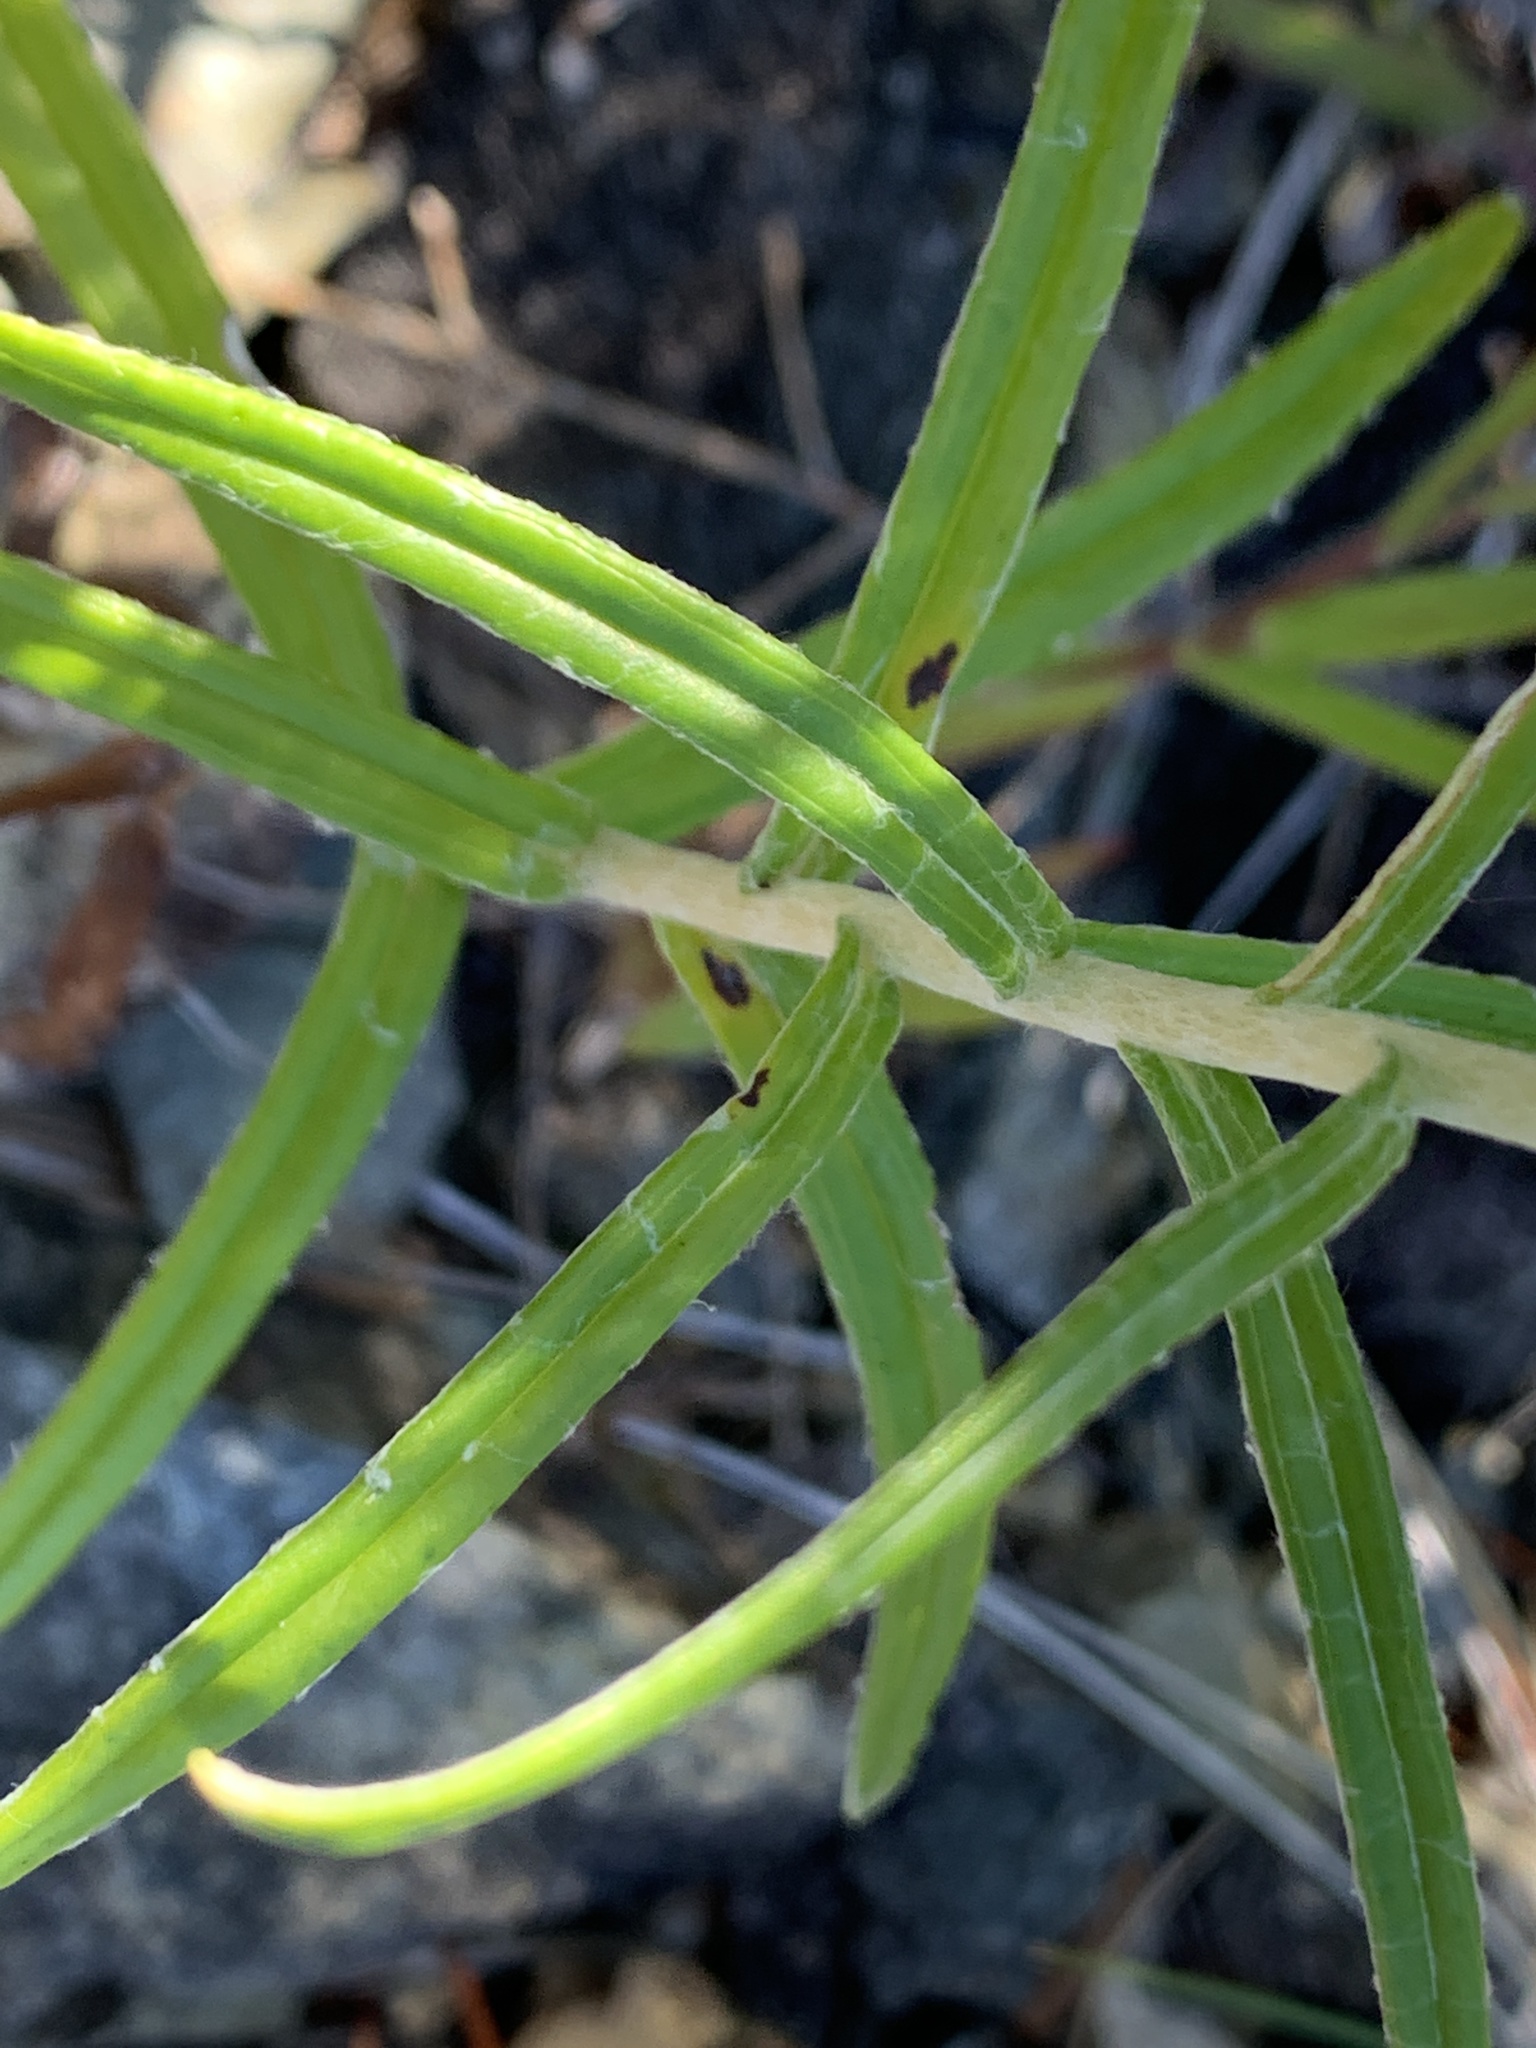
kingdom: Plantae
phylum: Tracheophyta
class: Magnoliopsida
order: Asterales
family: Asteraceae
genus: Anaphalis
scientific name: Anaphalis margaritacea
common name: Pearly everlasting
